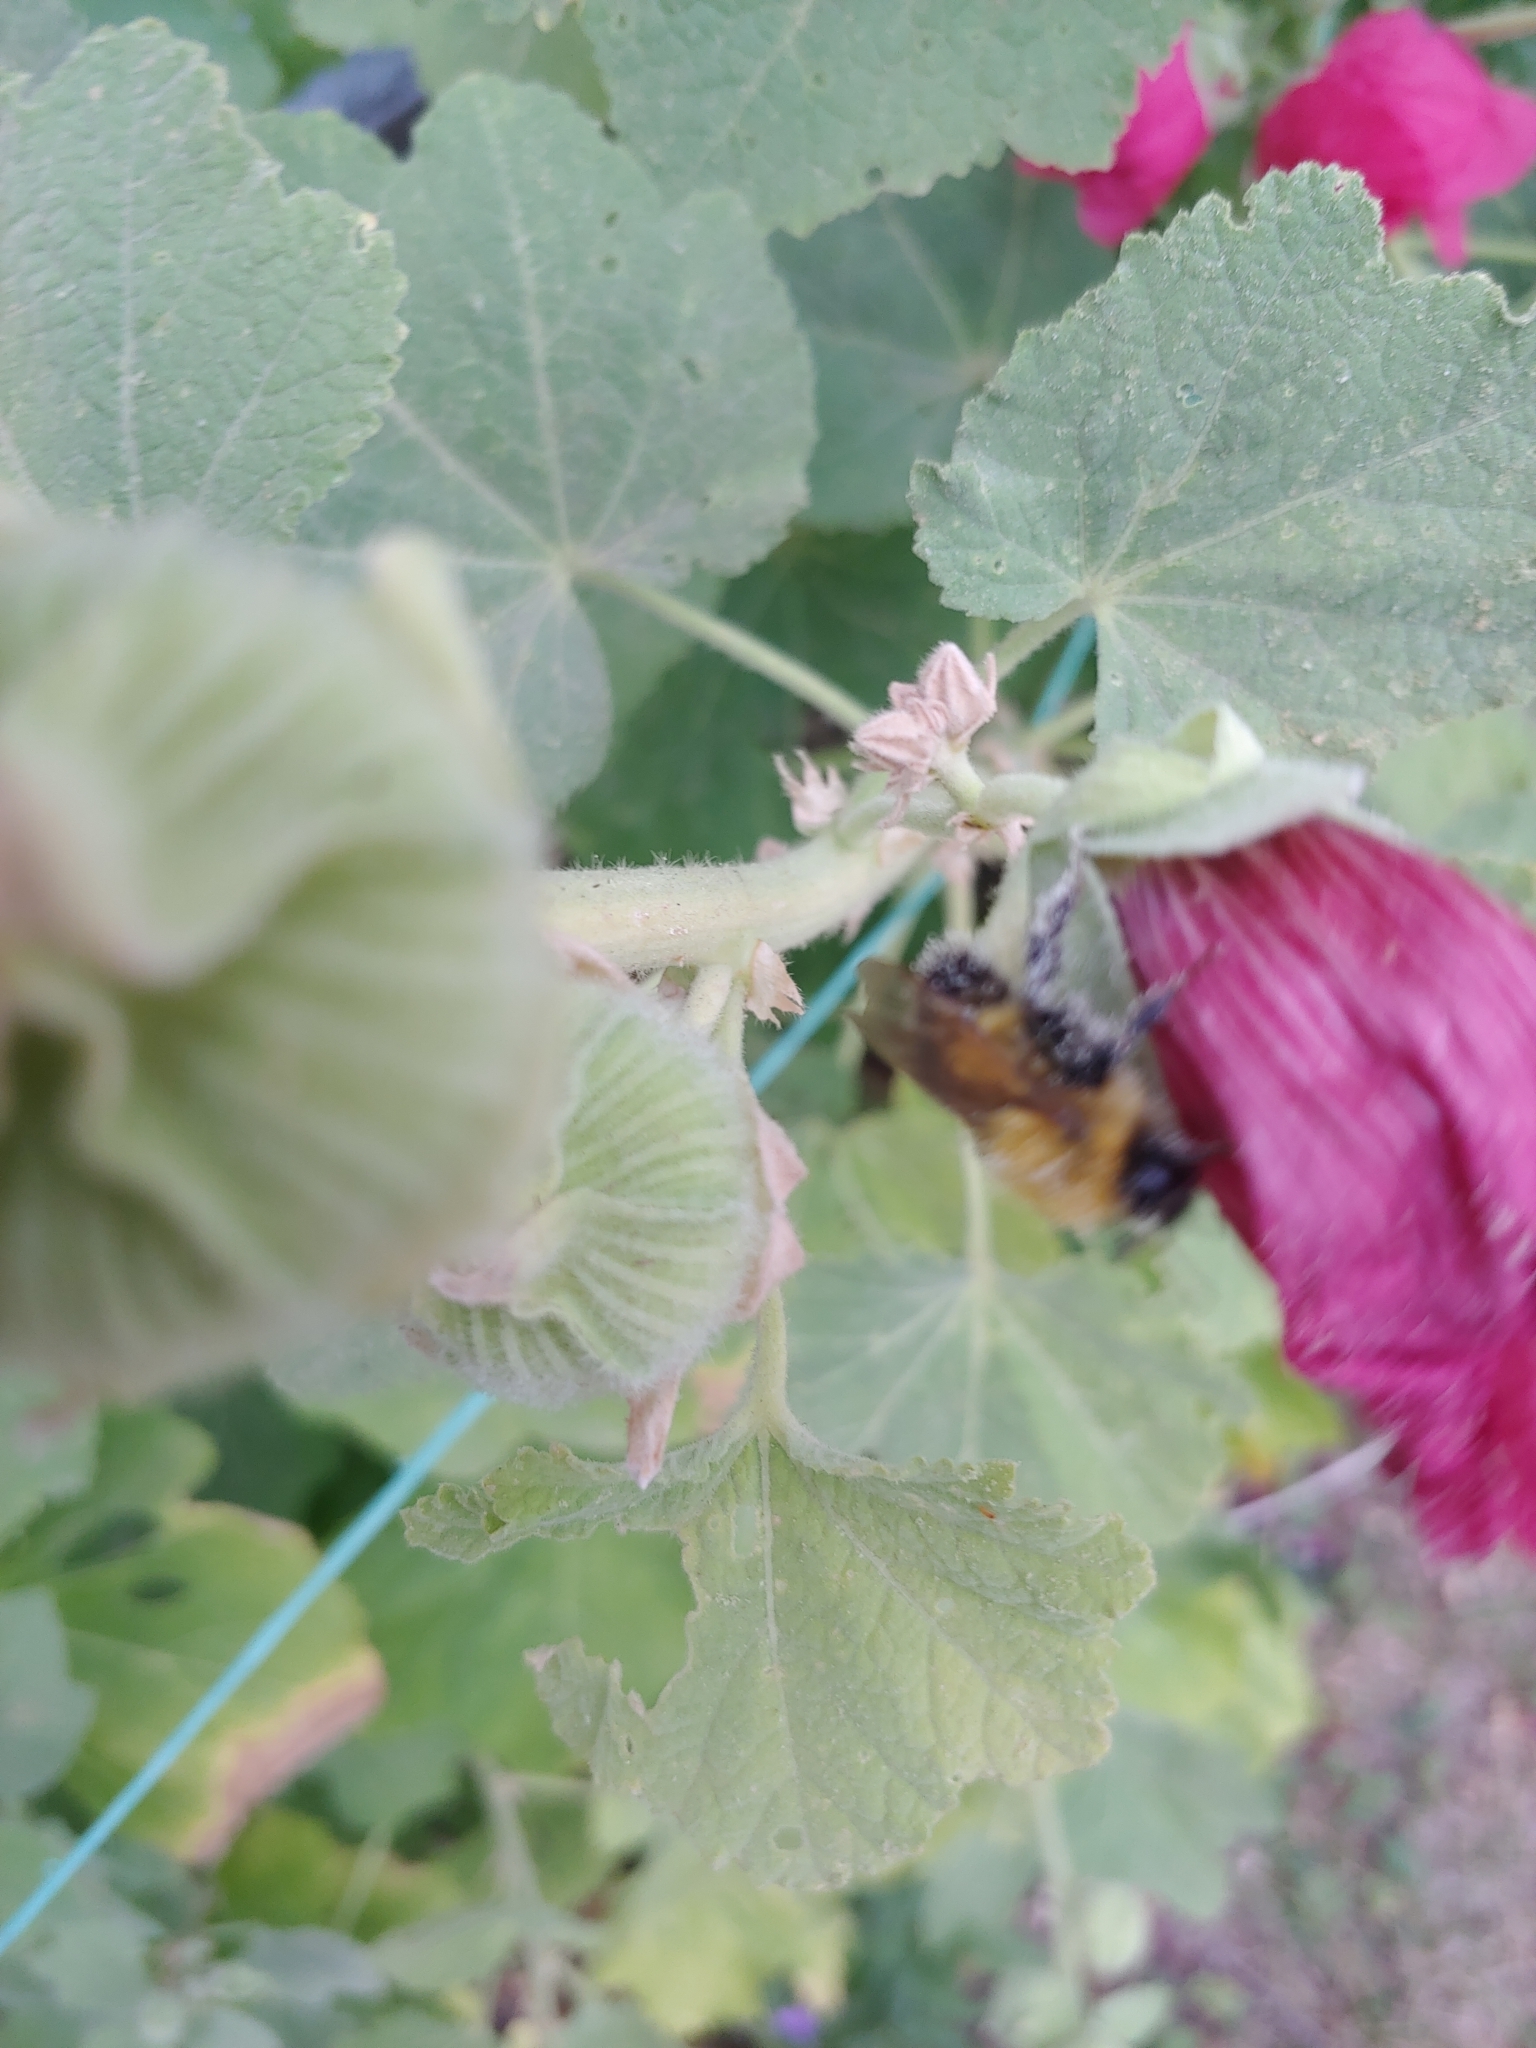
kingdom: Animalia
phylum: Arthropoda
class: Insecta
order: Hymenoptera
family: Apidae
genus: Bombus
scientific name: Bombus perplexus
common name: Confusing bumble bee
